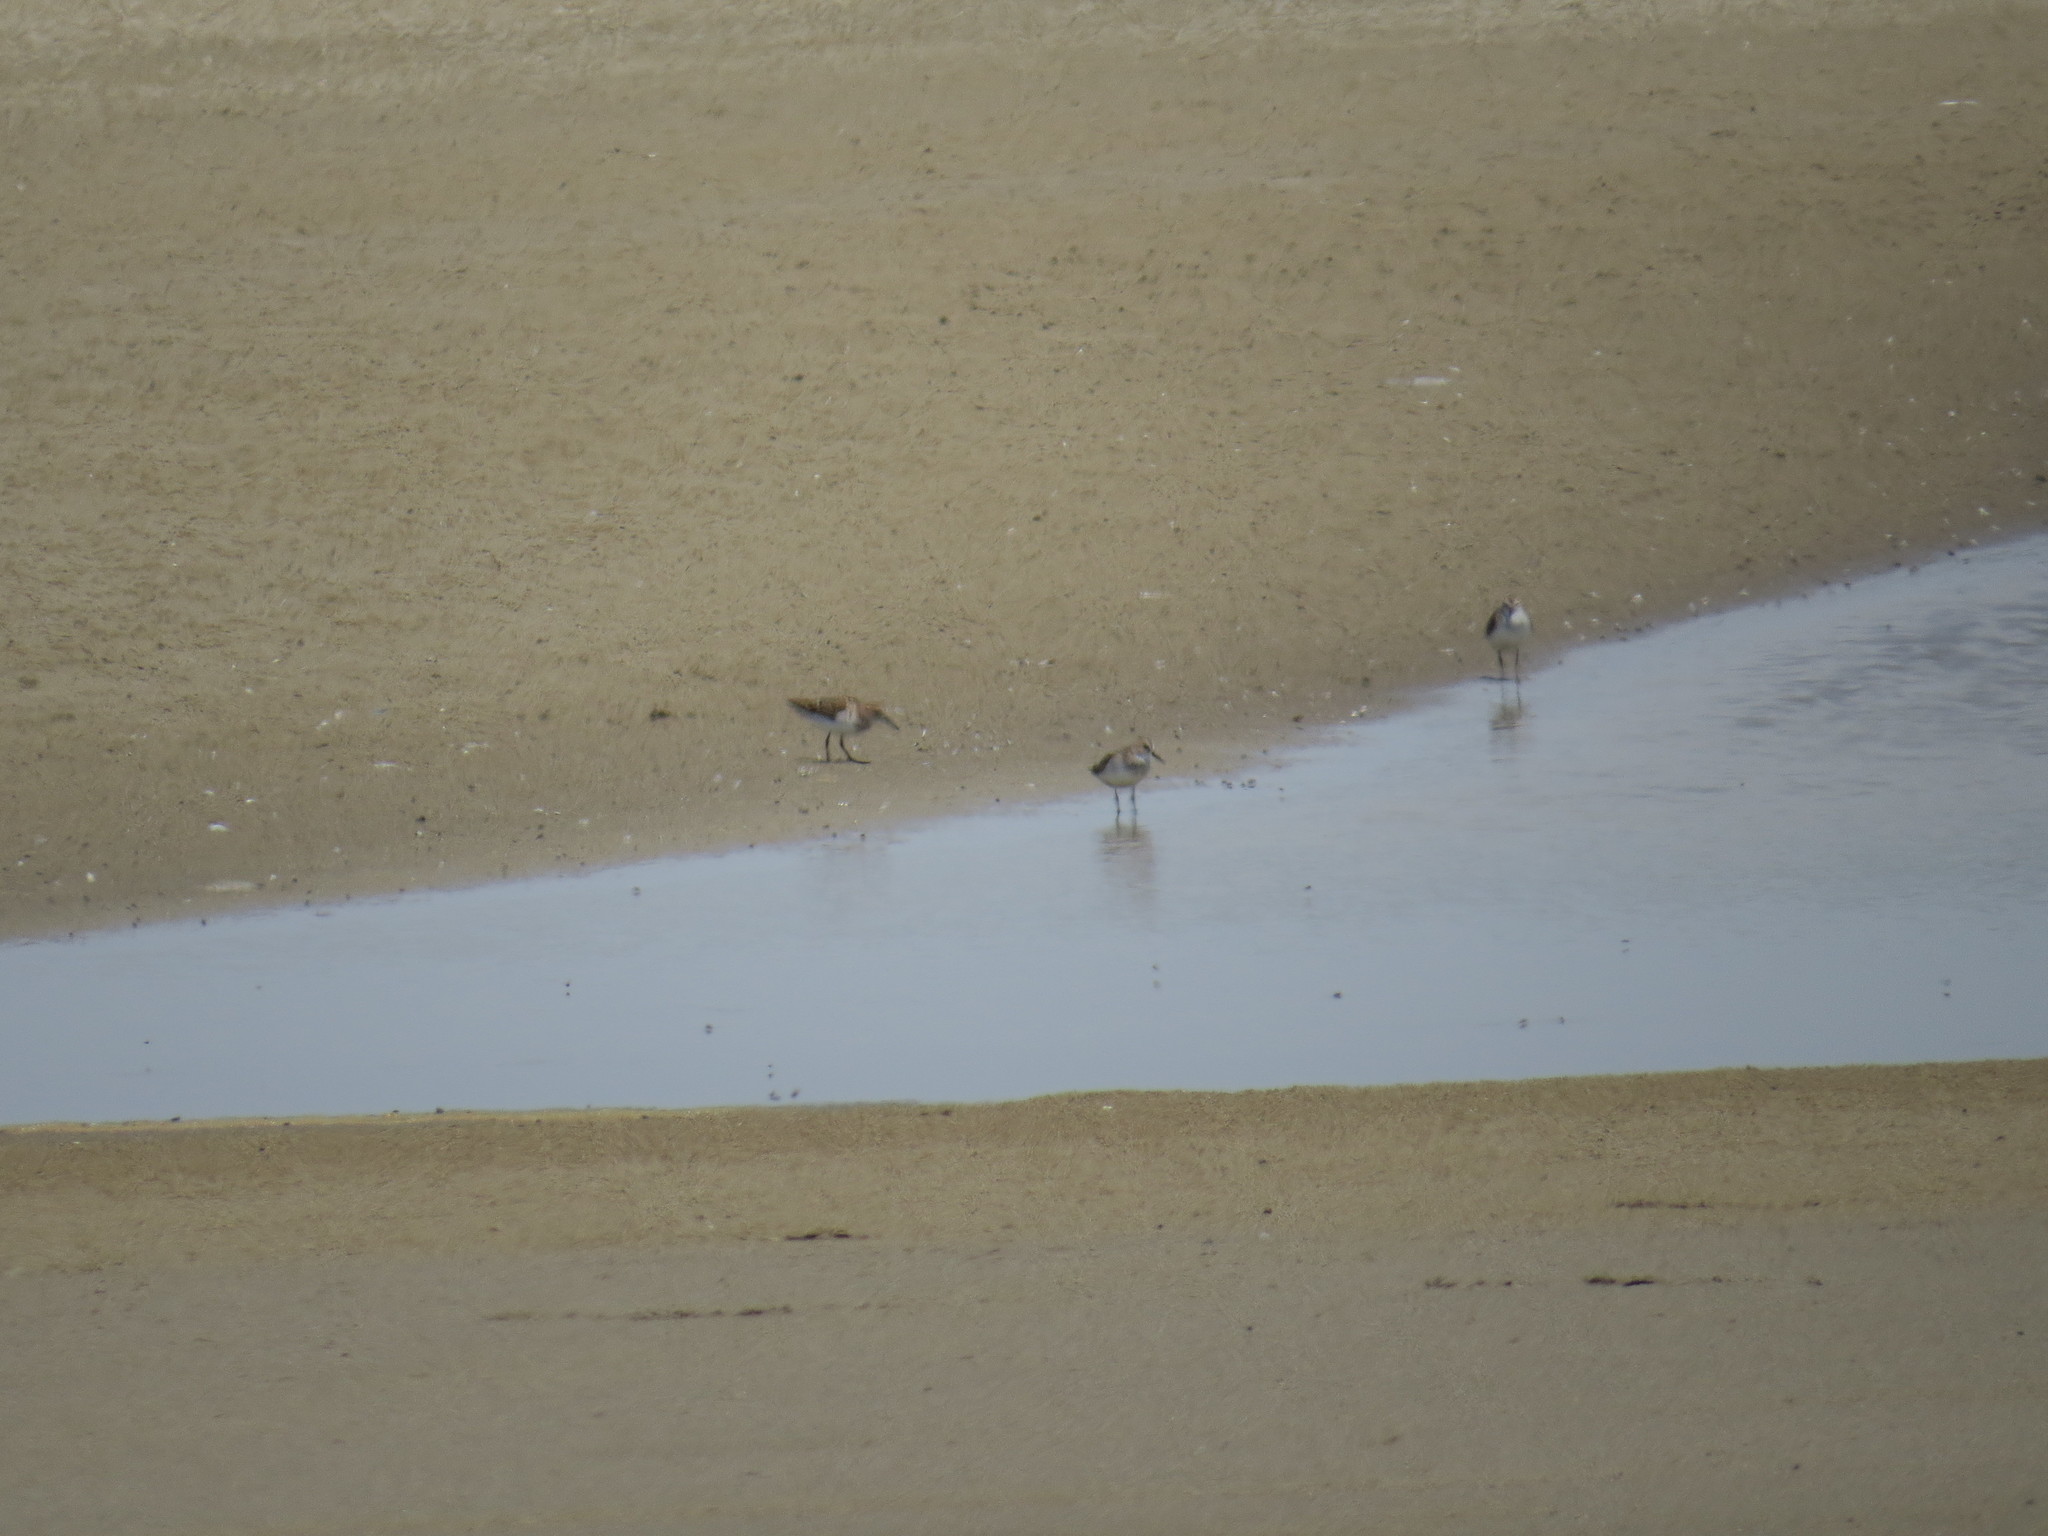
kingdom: Animalia
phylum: Chordata
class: Aves
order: Charadriiformes
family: Scolopacidae
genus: Calidris
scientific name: Calidris minuta
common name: Little stint
